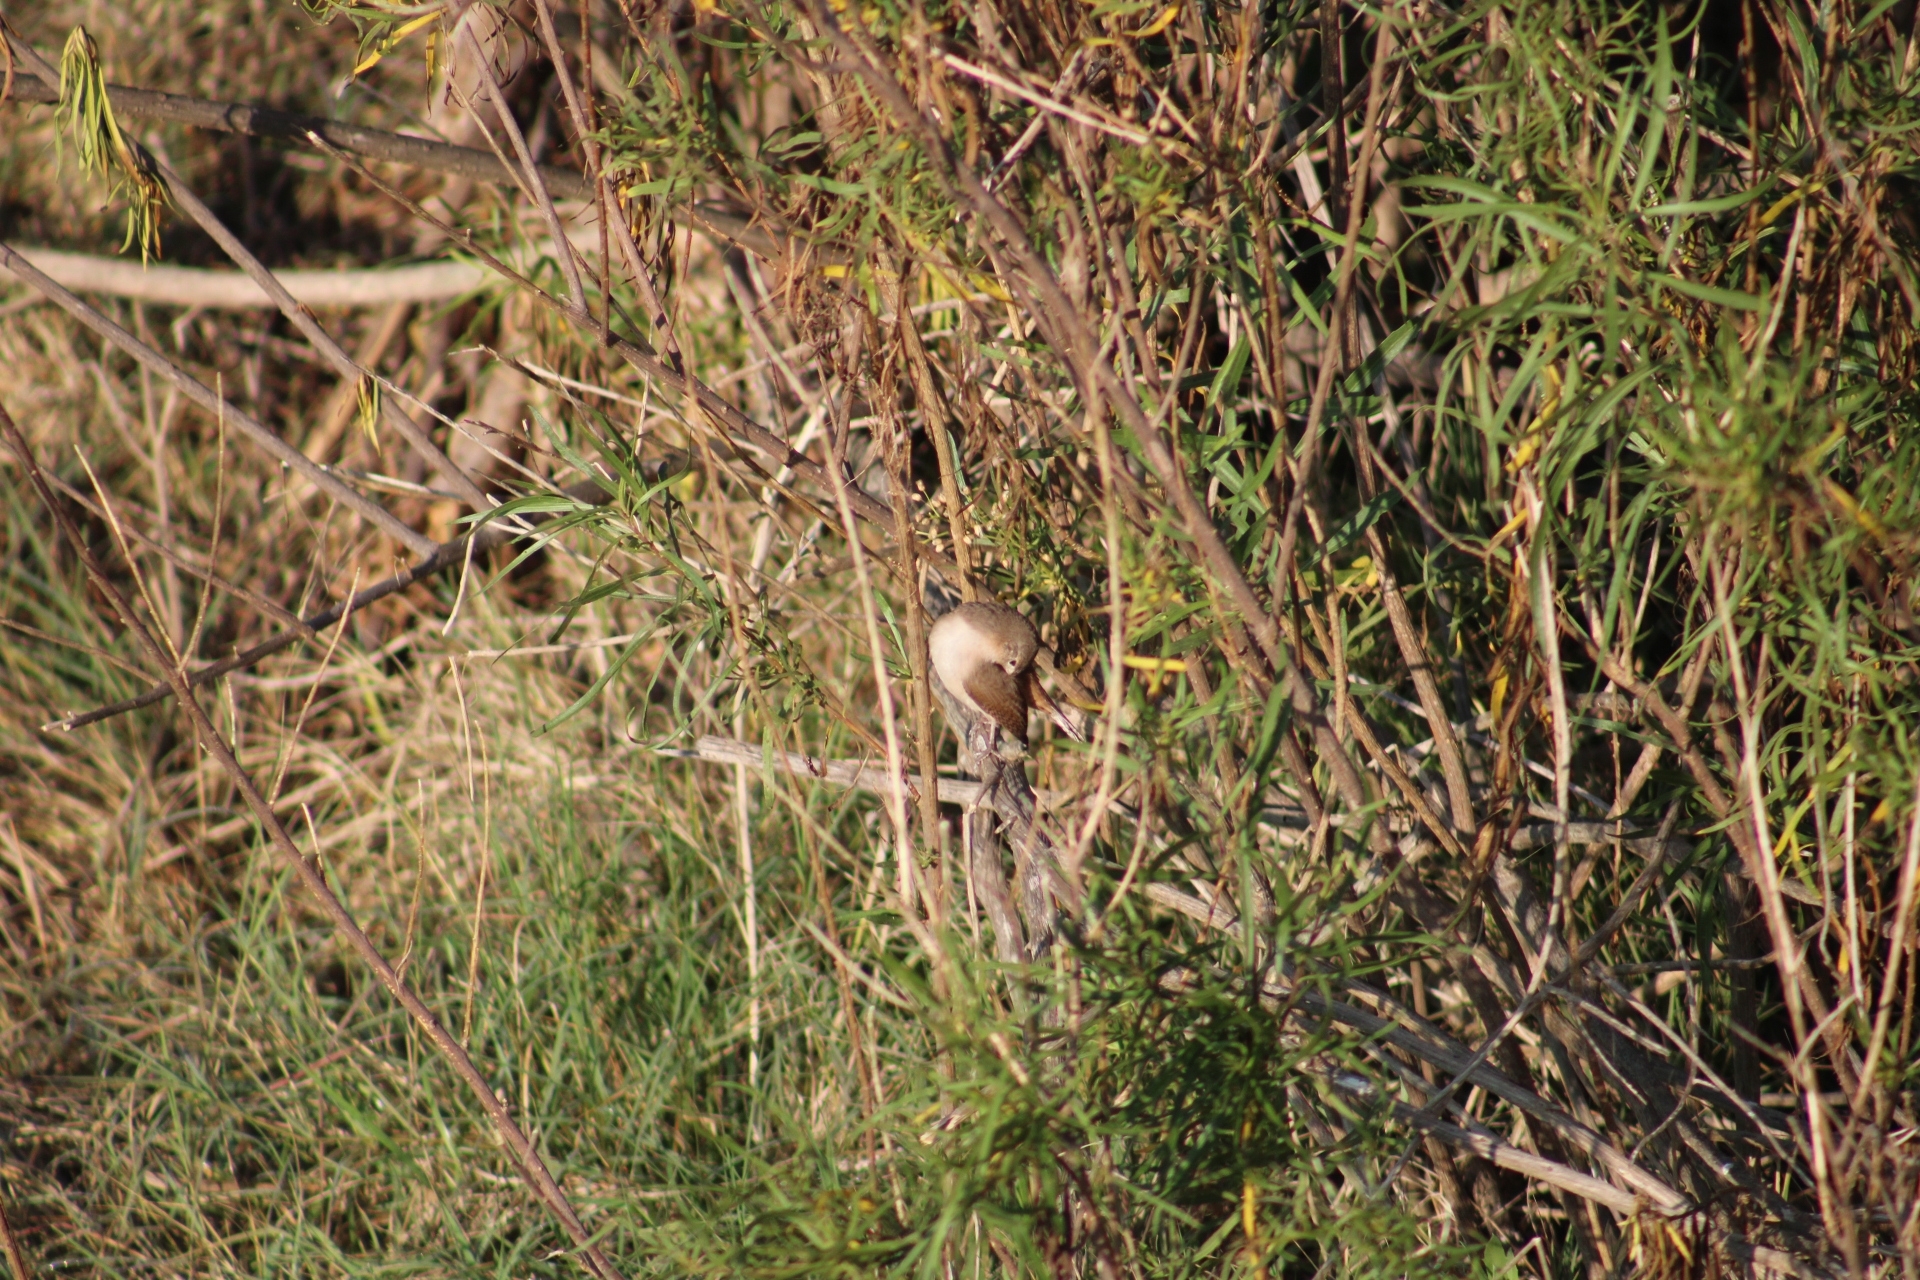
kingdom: Animalia
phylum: Chordata
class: Aves
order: Passeriformes
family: Troglodytidae
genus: Troglodytes
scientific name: Troglodytes aedon
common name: House wren
